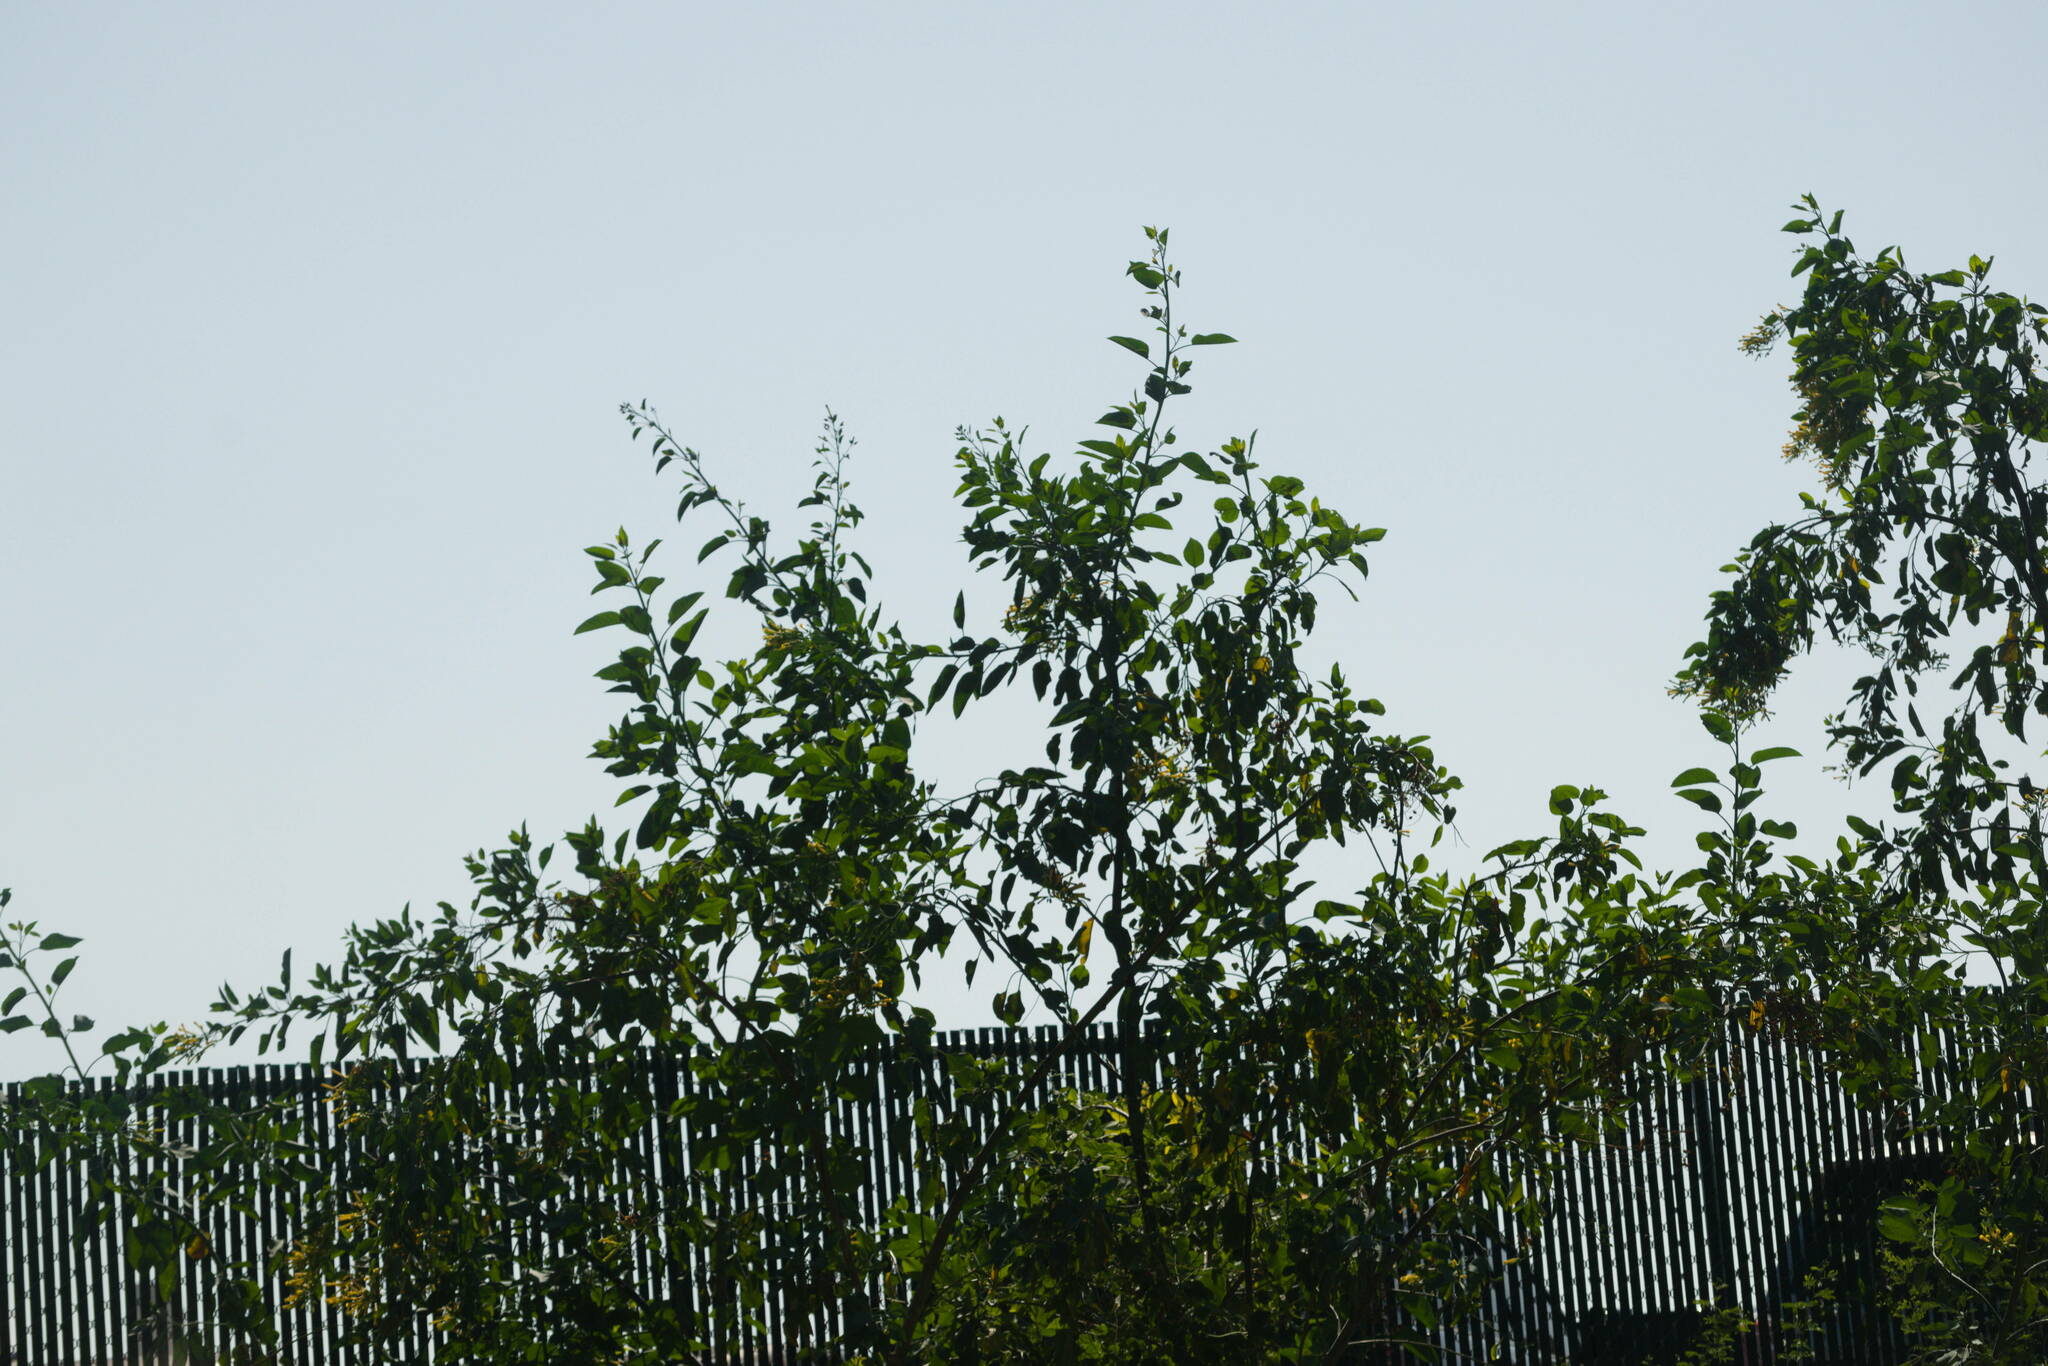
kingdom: Plantae
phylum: Tracheophyta
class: Magnoliopsida
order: Solanales
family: Solanaceae
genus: Nicotiana
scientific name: Nicotiana glauca
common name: Tree tobacco
